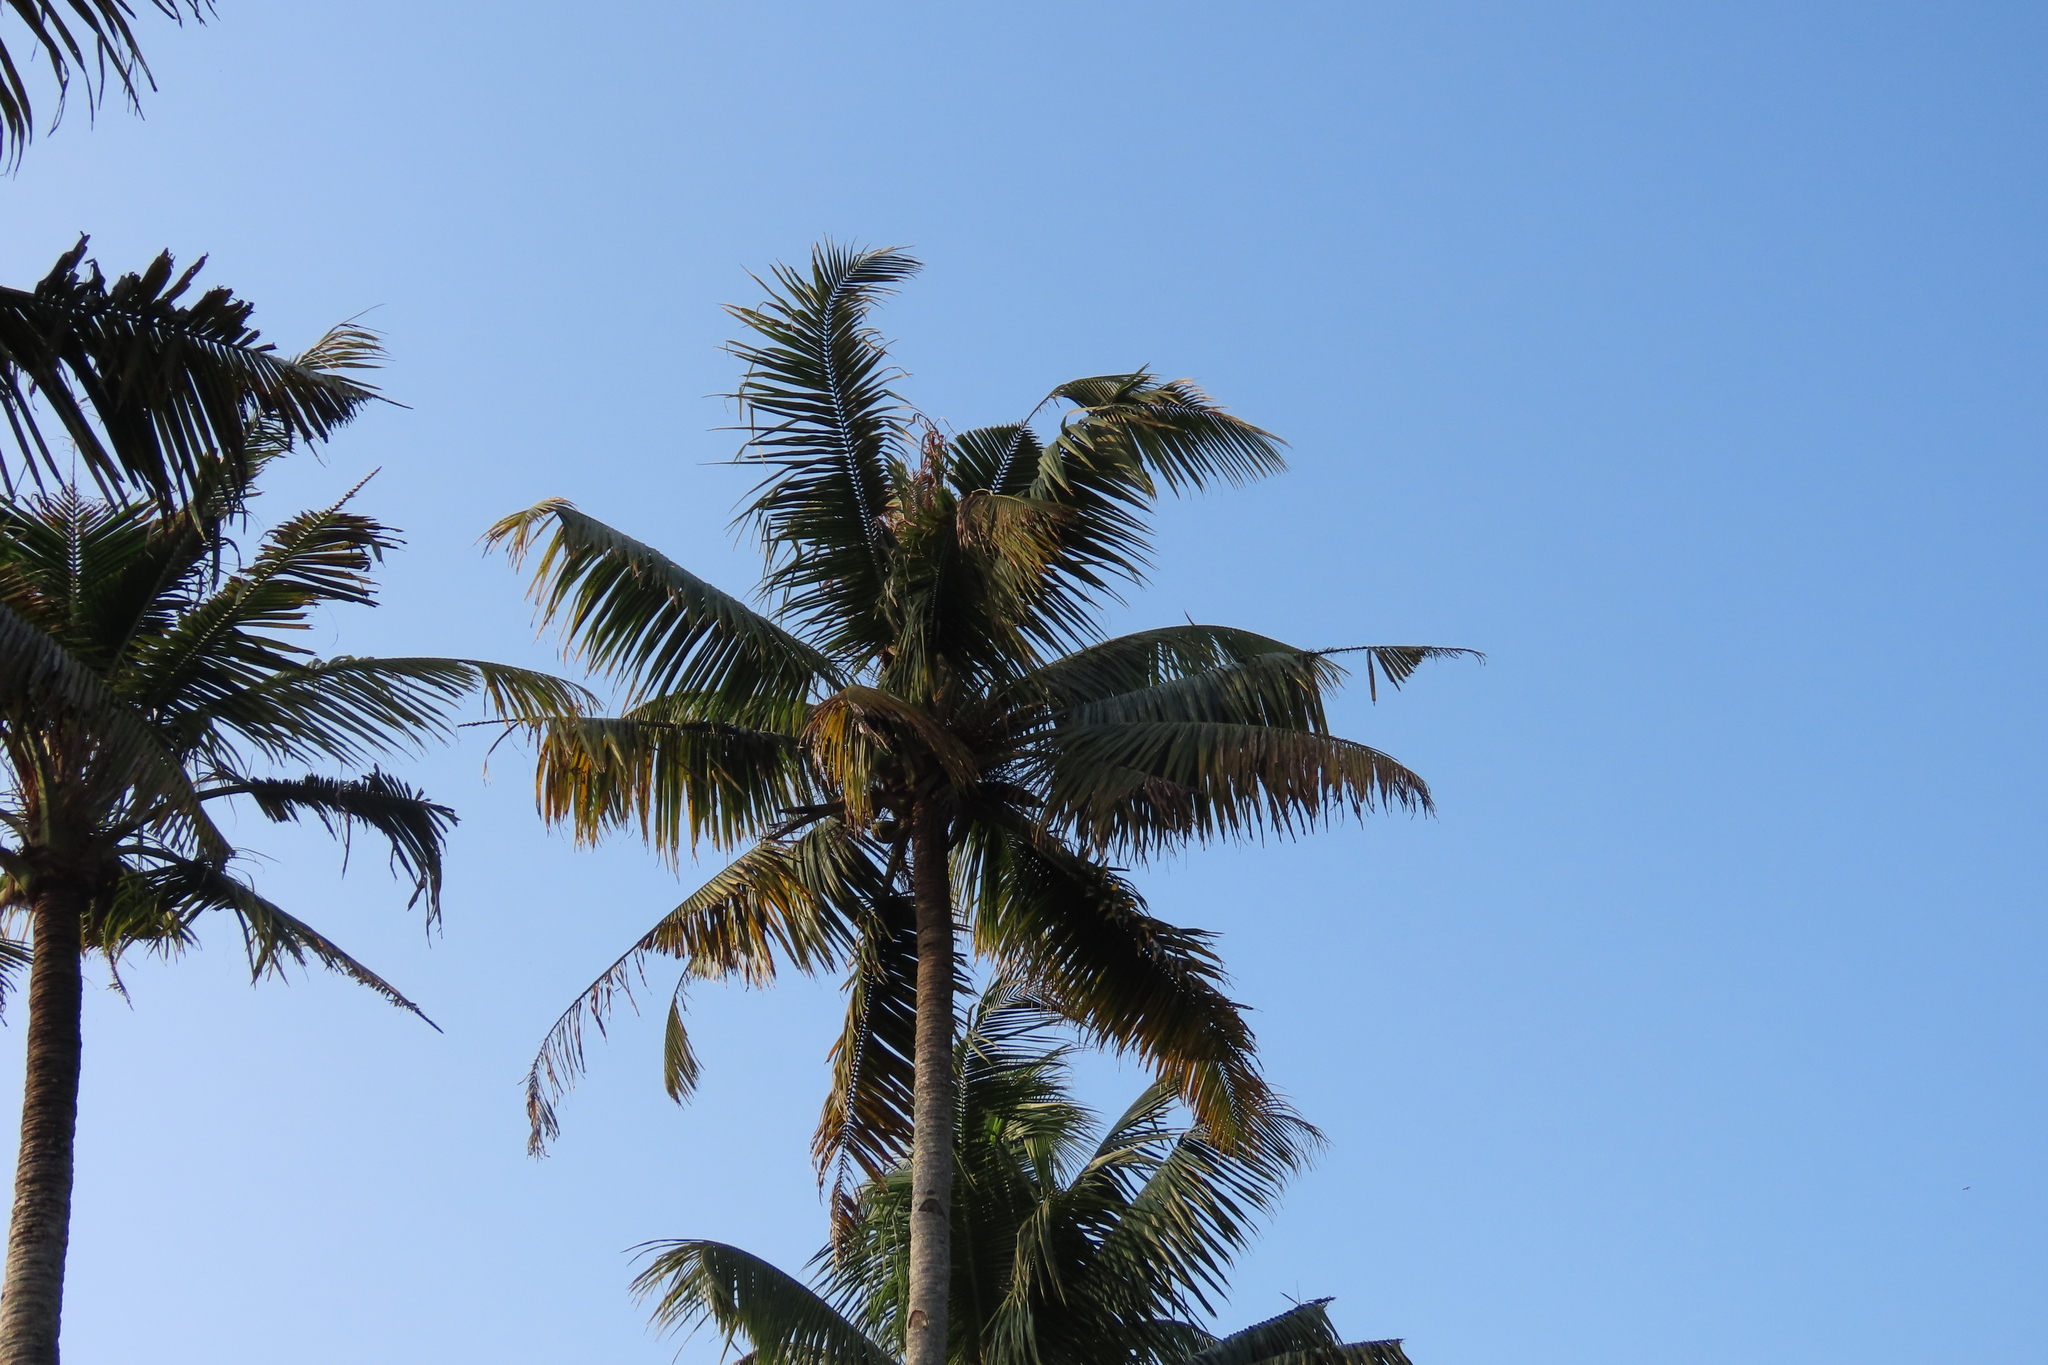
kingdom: Plantae
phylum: Tracheophyta
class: Liliopsida
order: Arecales
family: Arecaceae
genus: Cocos
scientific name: Cocos nucifera
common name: Coconut palm
